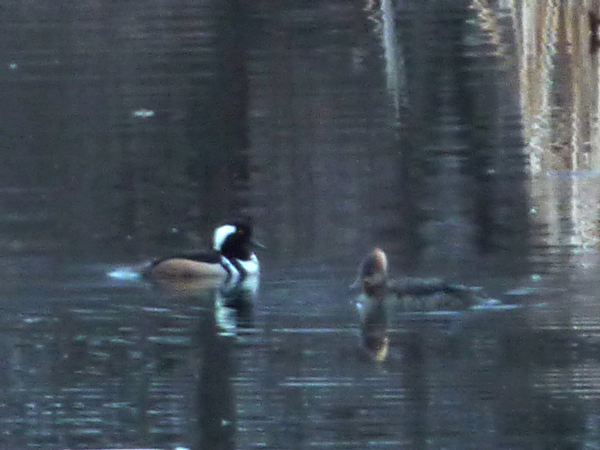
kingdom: Animalia
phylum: Chordata
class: Aves
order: Anseriformes
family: Anatidae
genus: Lophodytes
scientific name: Lophodytes cucullatus
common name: Hooded merganser
